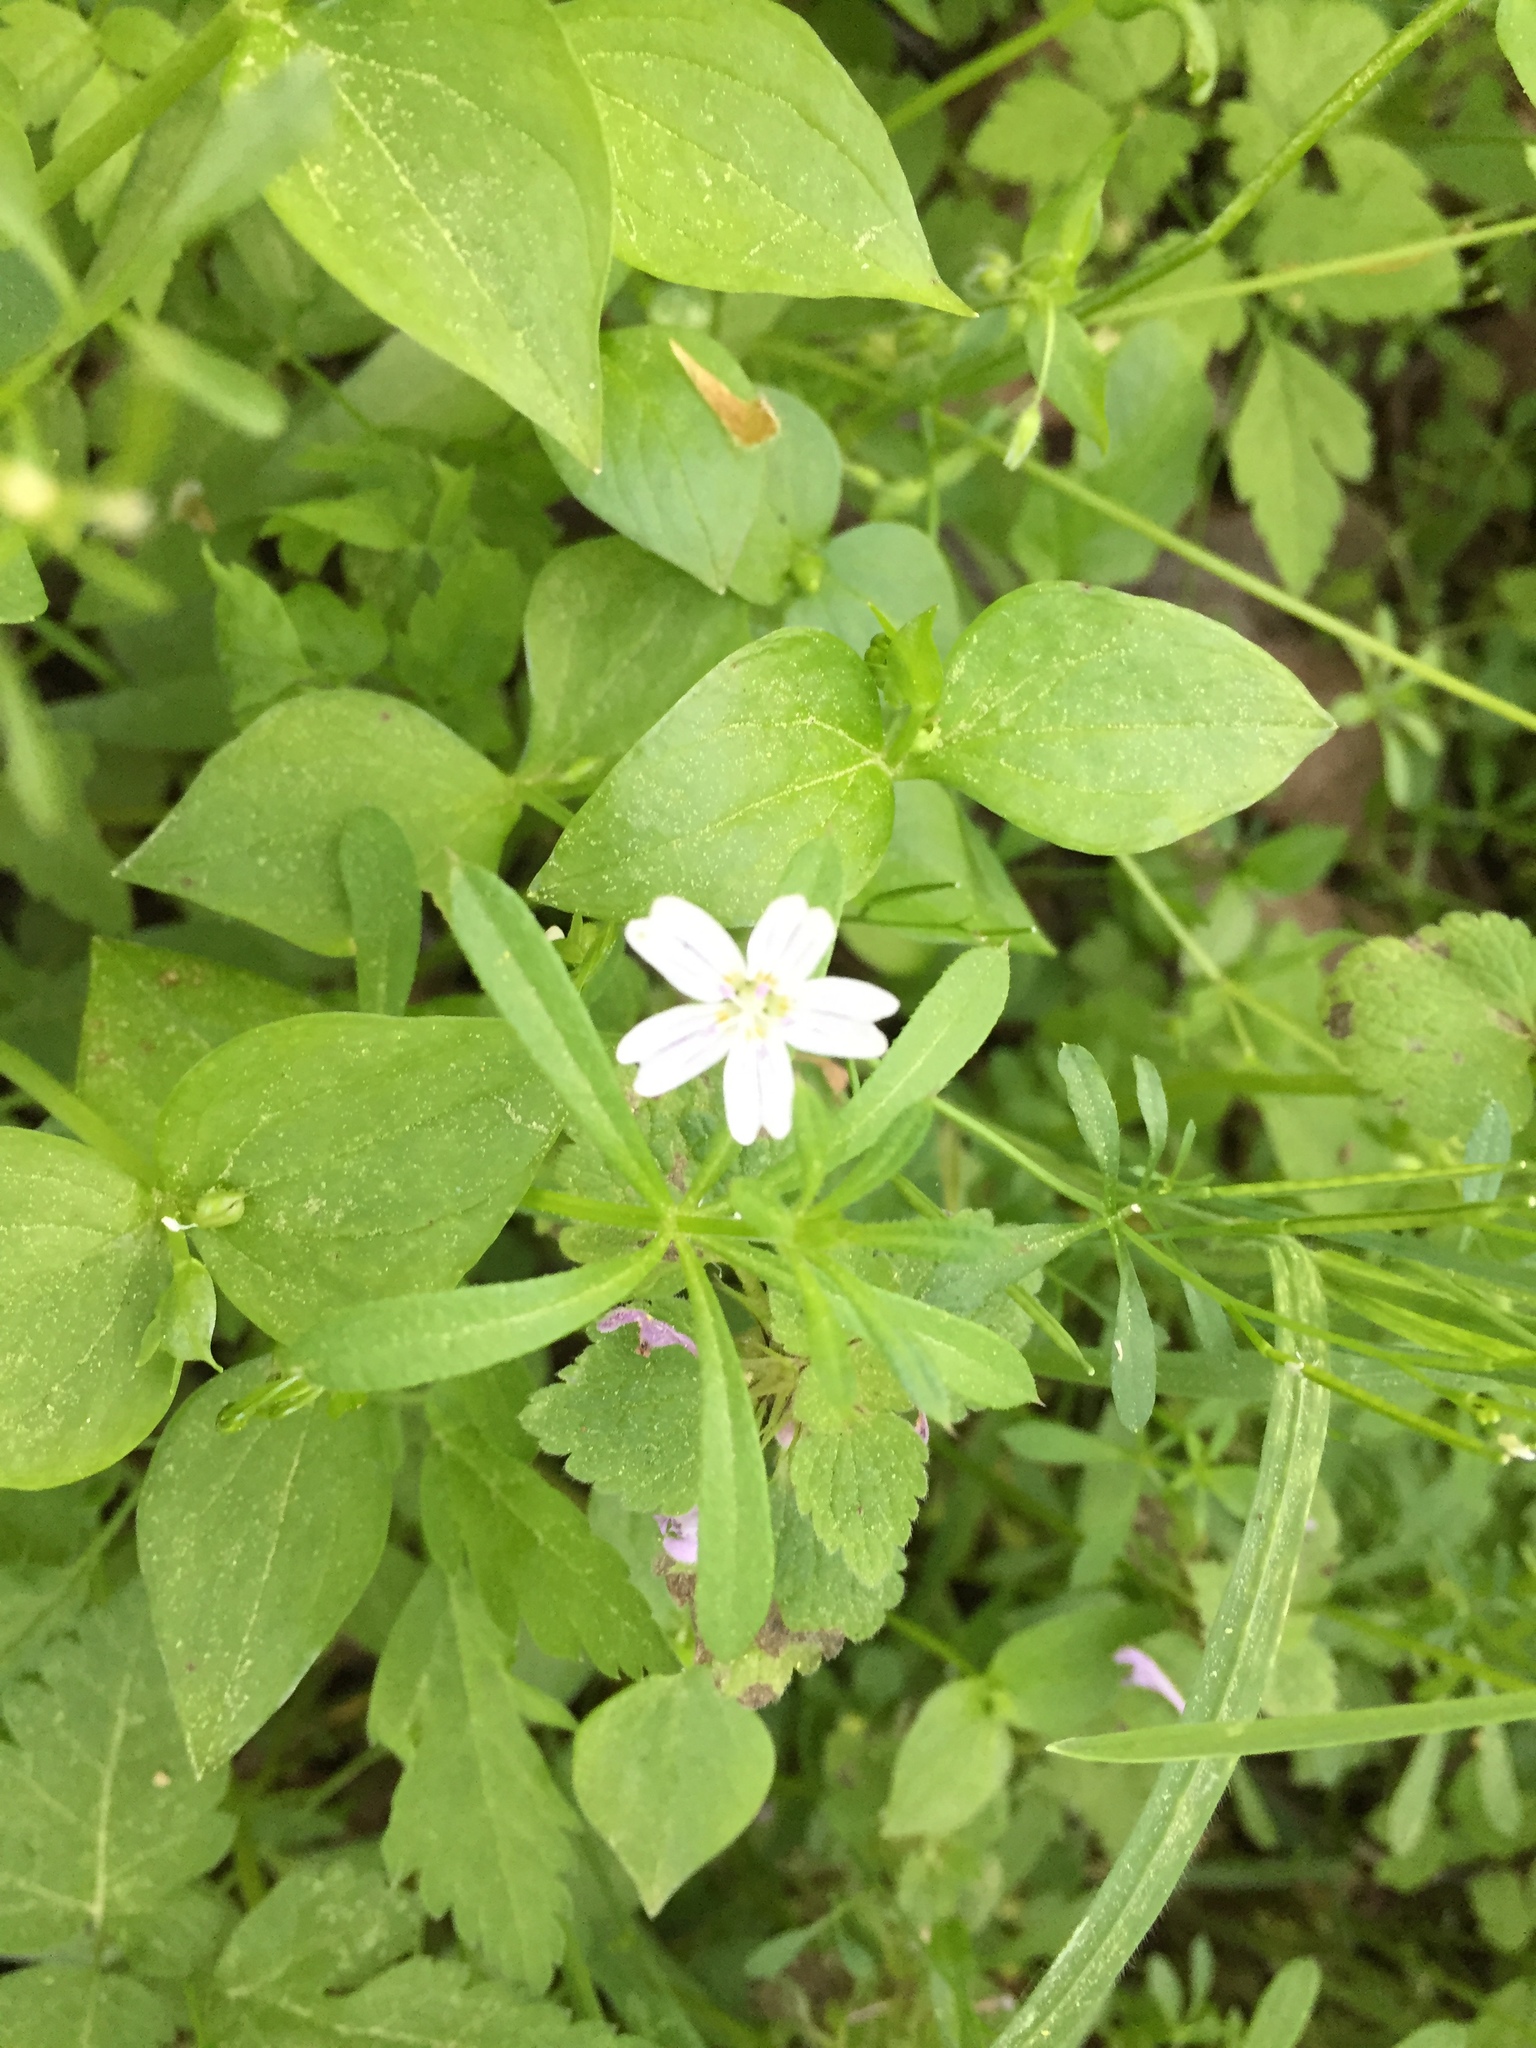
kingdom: Plantae
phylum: Tracheophyta
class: Magnoliopsida
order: Caryophyllales
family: Montiaceae
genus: Claytonia
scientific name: Claytonia sibirica
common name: Pink purslane
